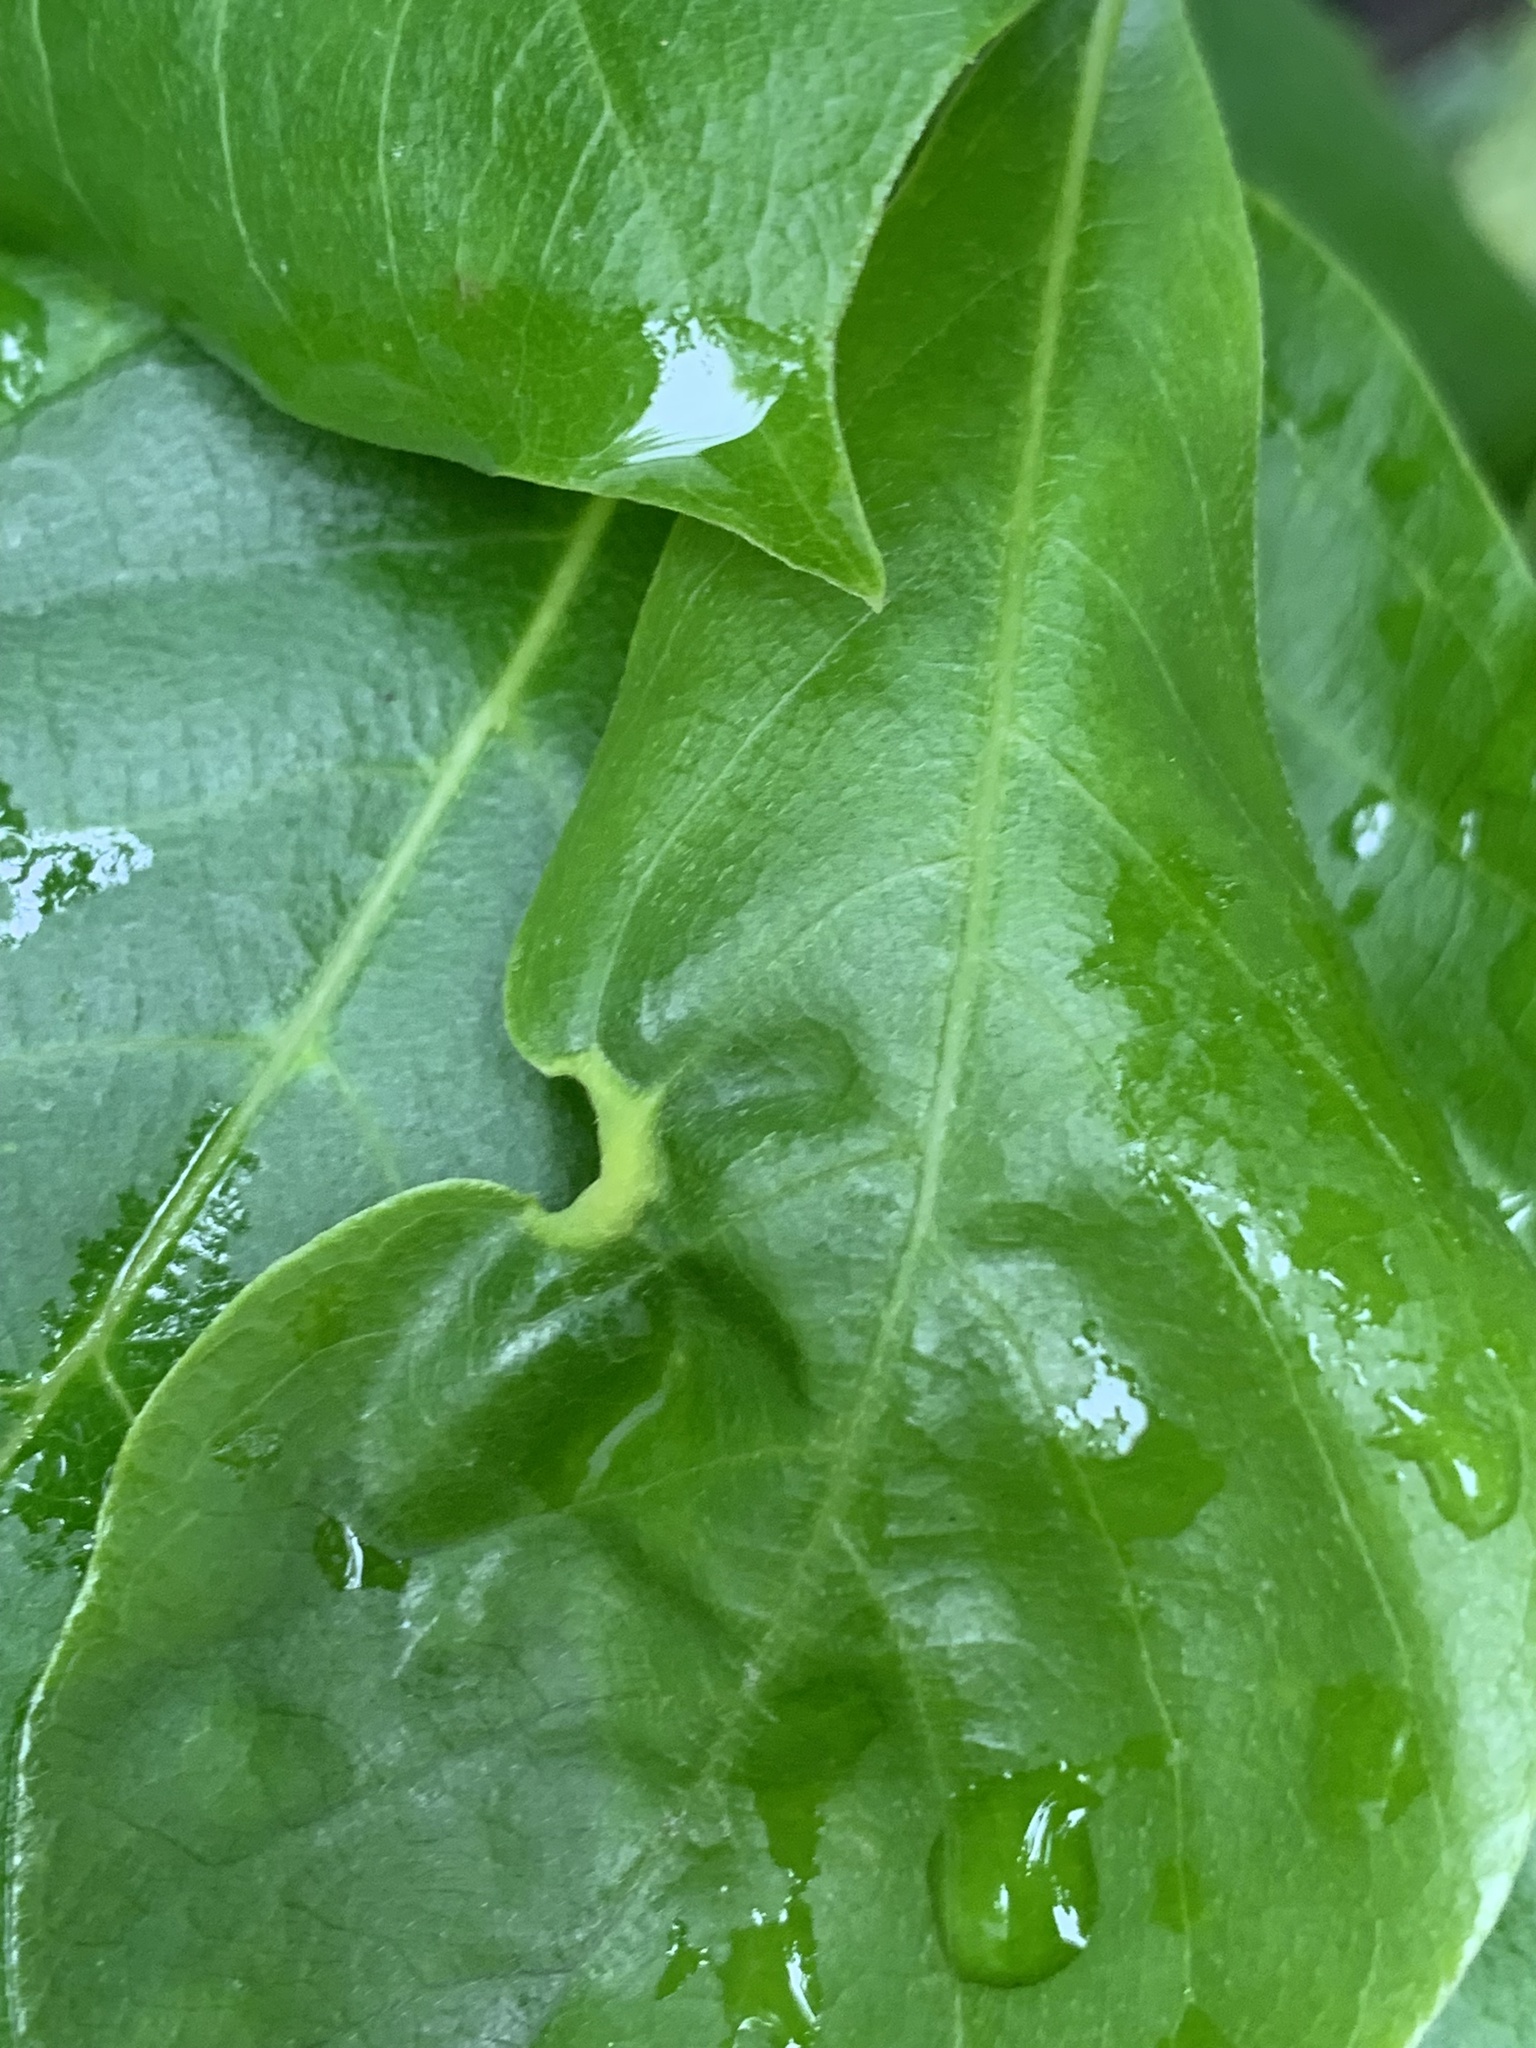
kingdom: Animalia
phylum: Arthropoda
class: Insecta
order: Hemiptera
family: Phylloxeridae
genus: Phylloxerina
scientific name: Phylloxerina nyssae
